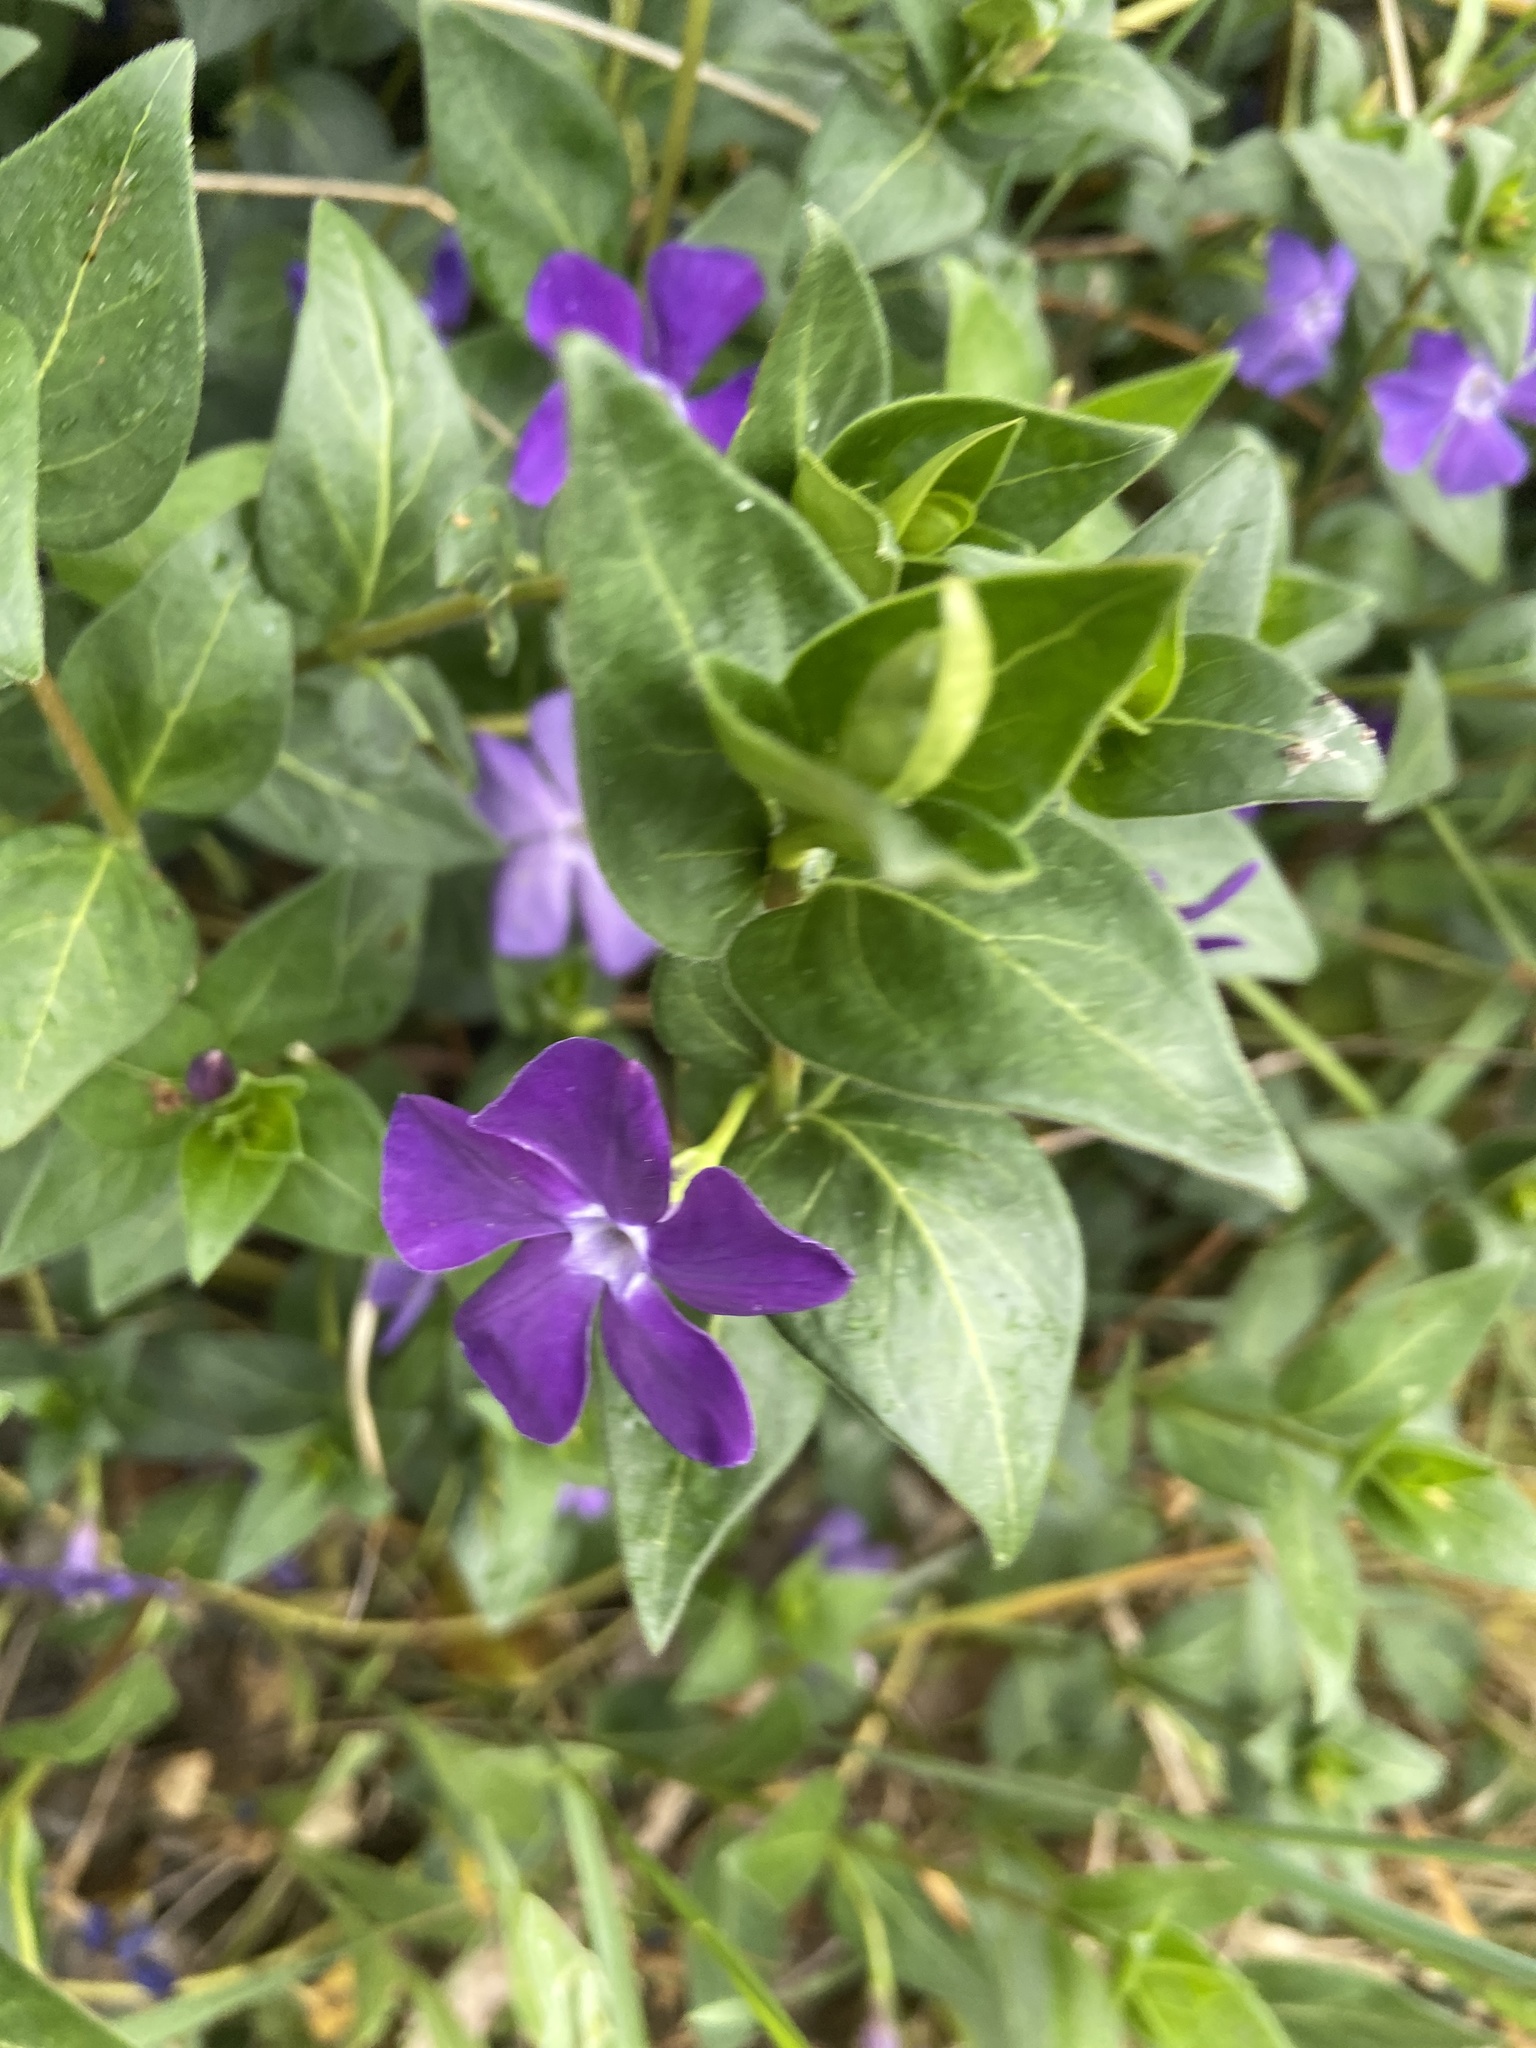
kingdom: Plantae
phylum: Tracheophyta
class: Magnoliopsida
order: Gentianales
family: Apocynaceae
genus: Vinca
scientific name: Vinca major
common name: Greater periwinkle
